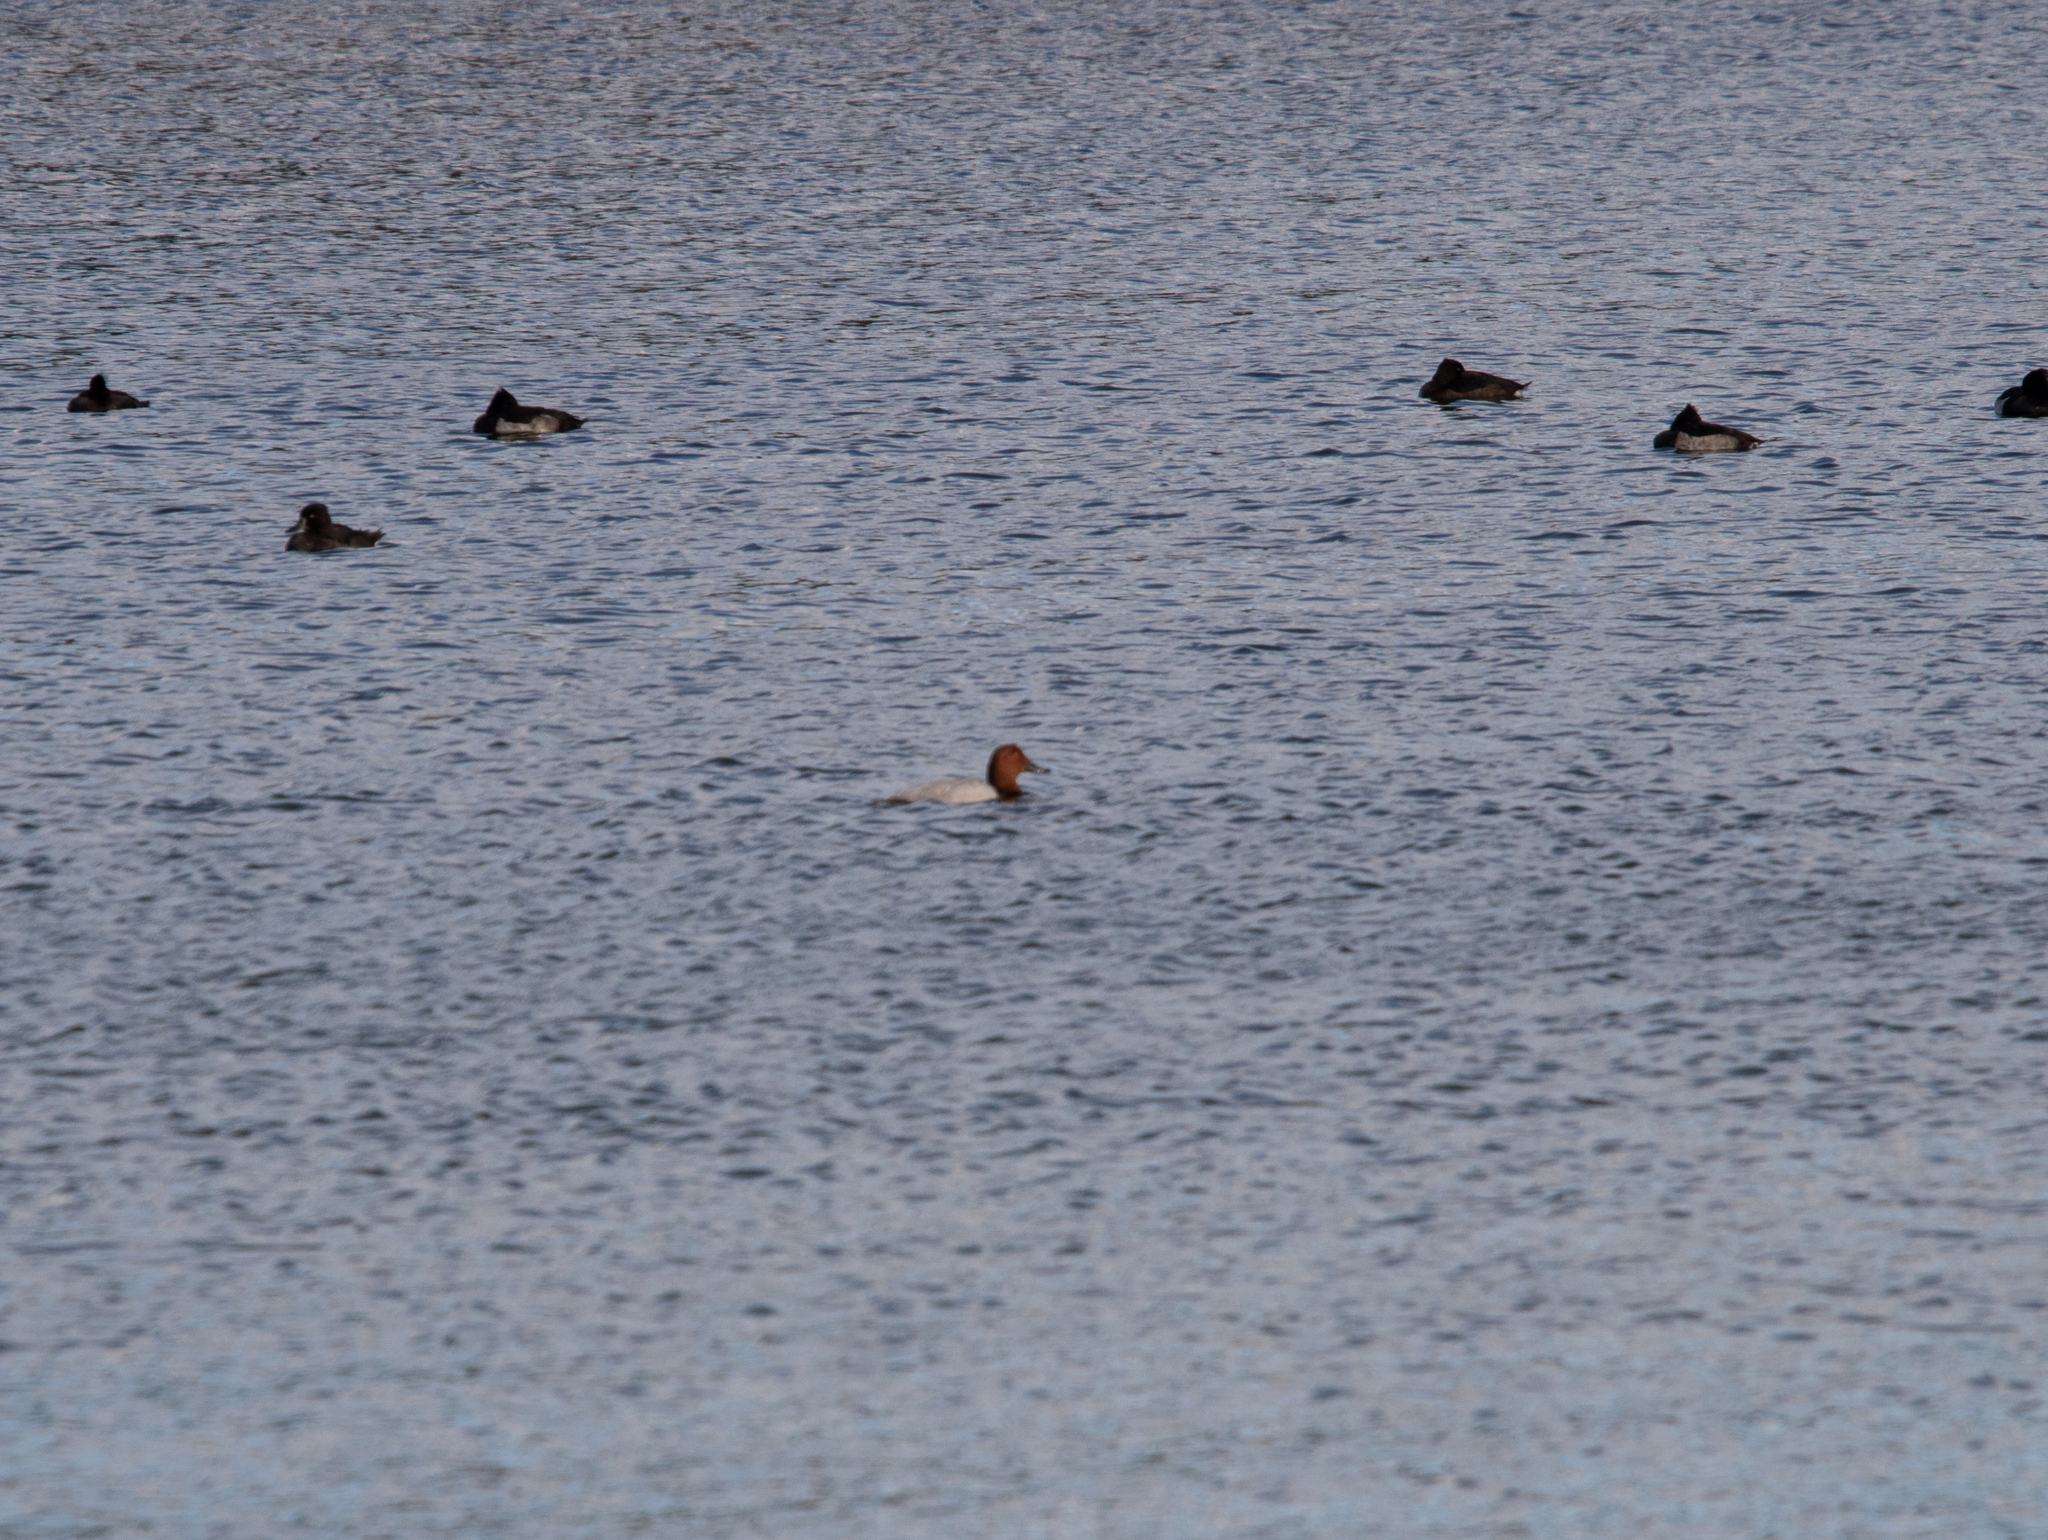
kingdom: Animalia
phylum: Chordata
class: Aves
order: Anseriformes
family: Anatidae
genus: Aythya
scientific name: Aythya ferina
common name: Common pochard
